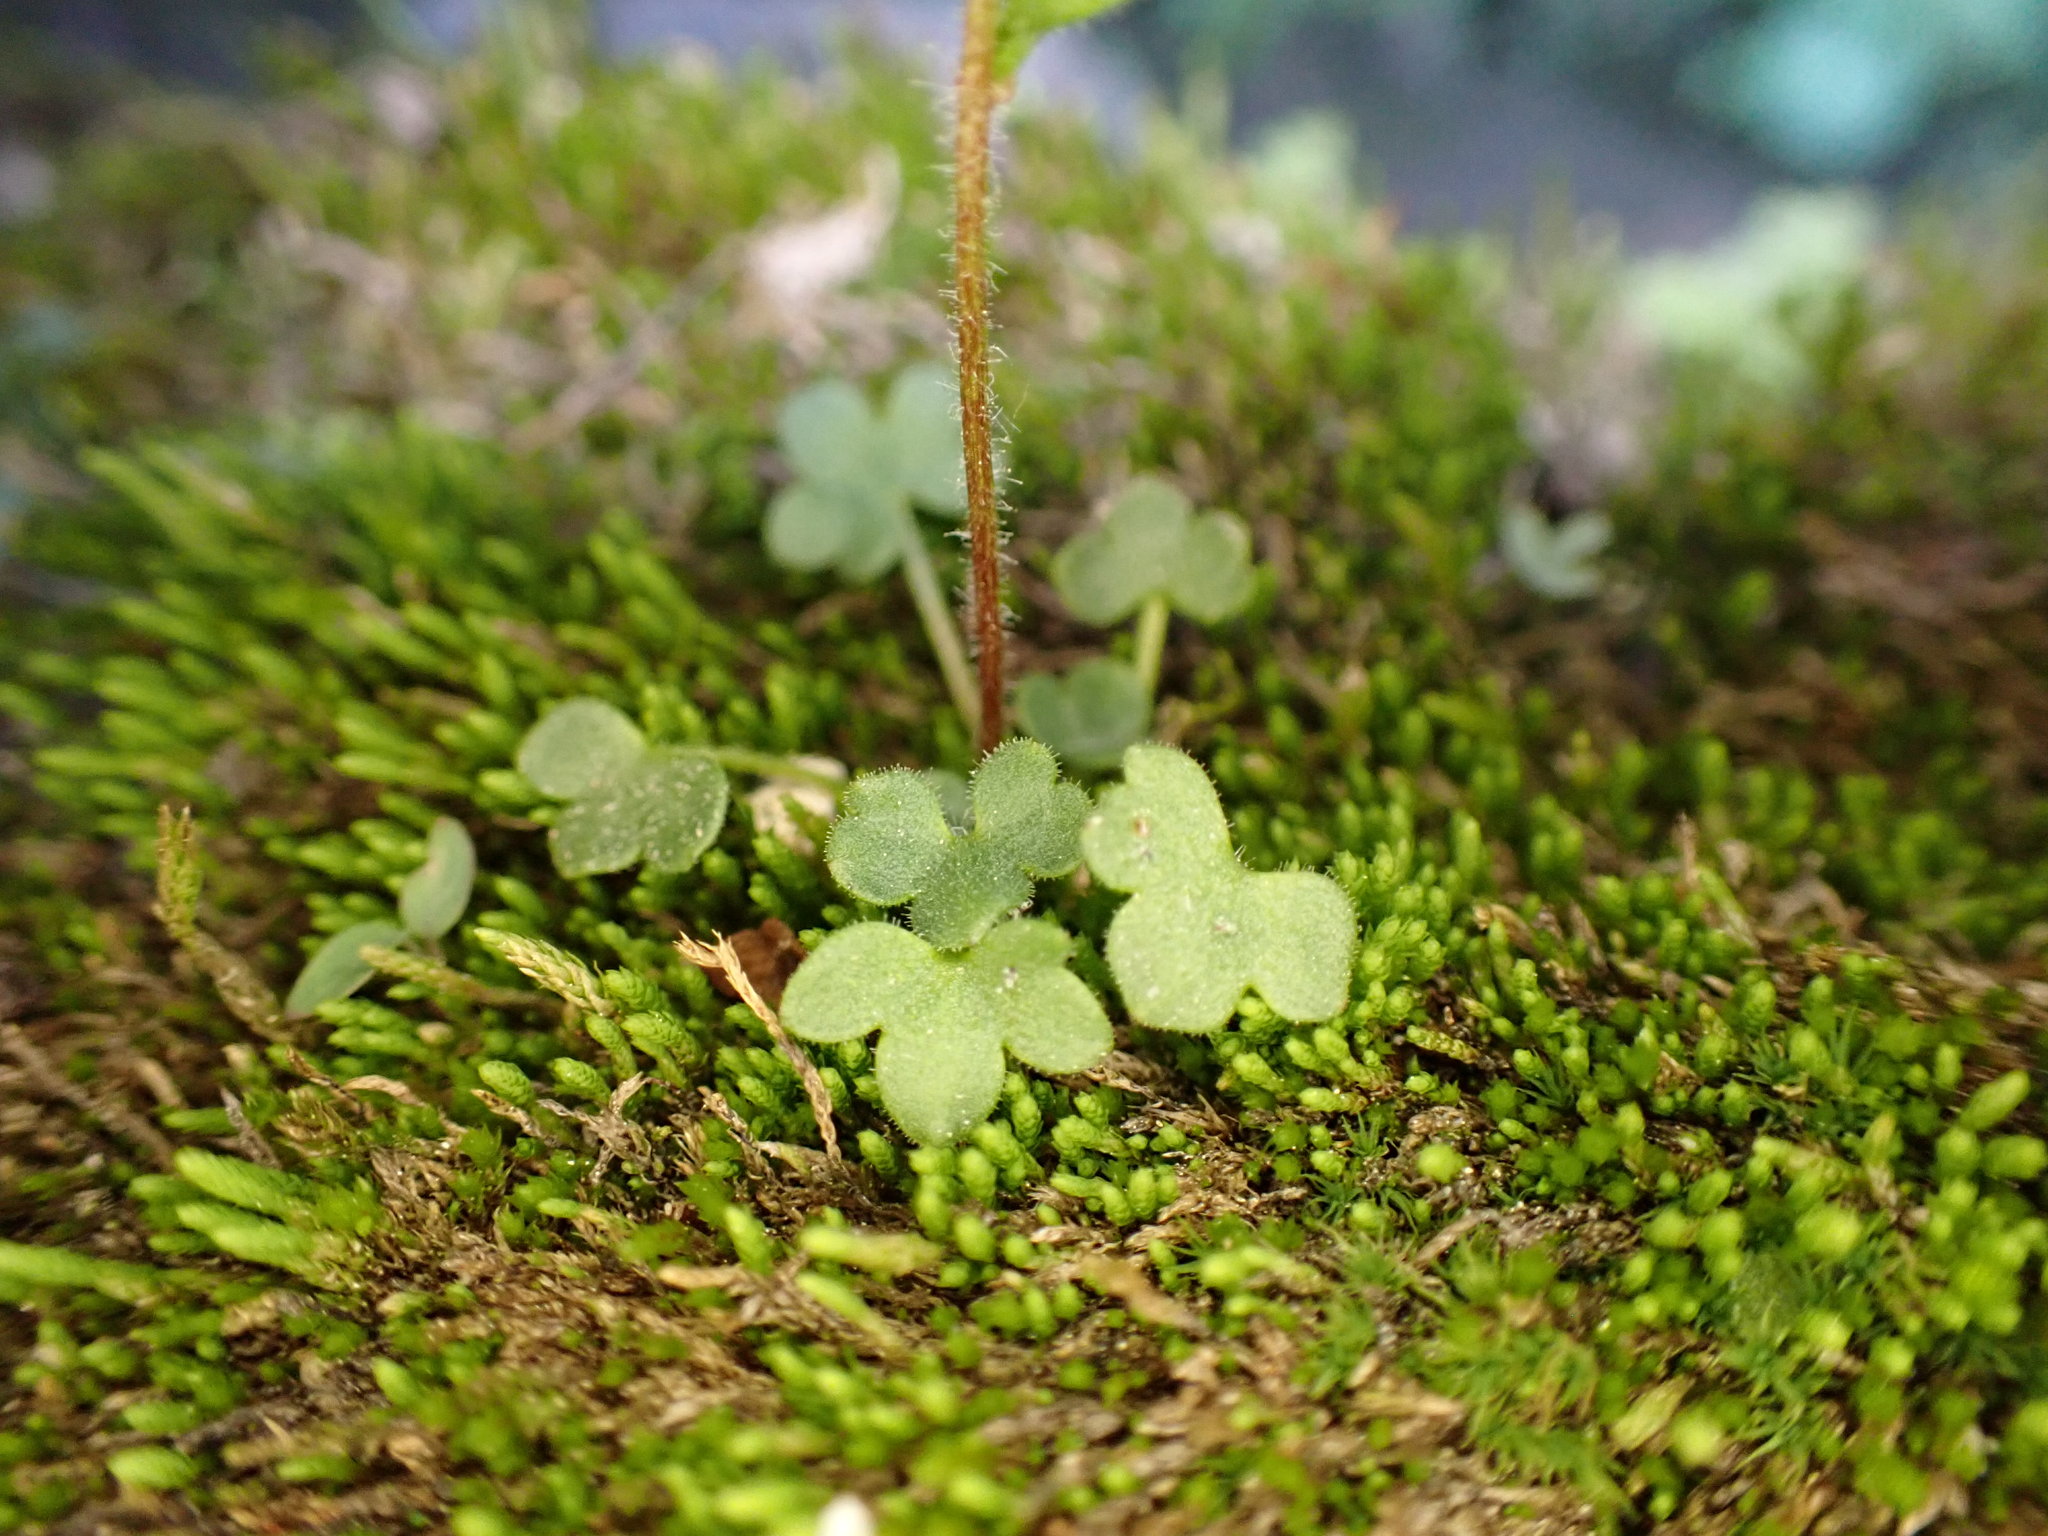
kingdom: Plantae
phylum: Tracheophyta
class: Magnoliopsida
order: Saxifragales
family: Saxifragaceae
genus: Saxifraga
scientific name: Saxifraga hyperborea
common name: Arctic saxifrage
